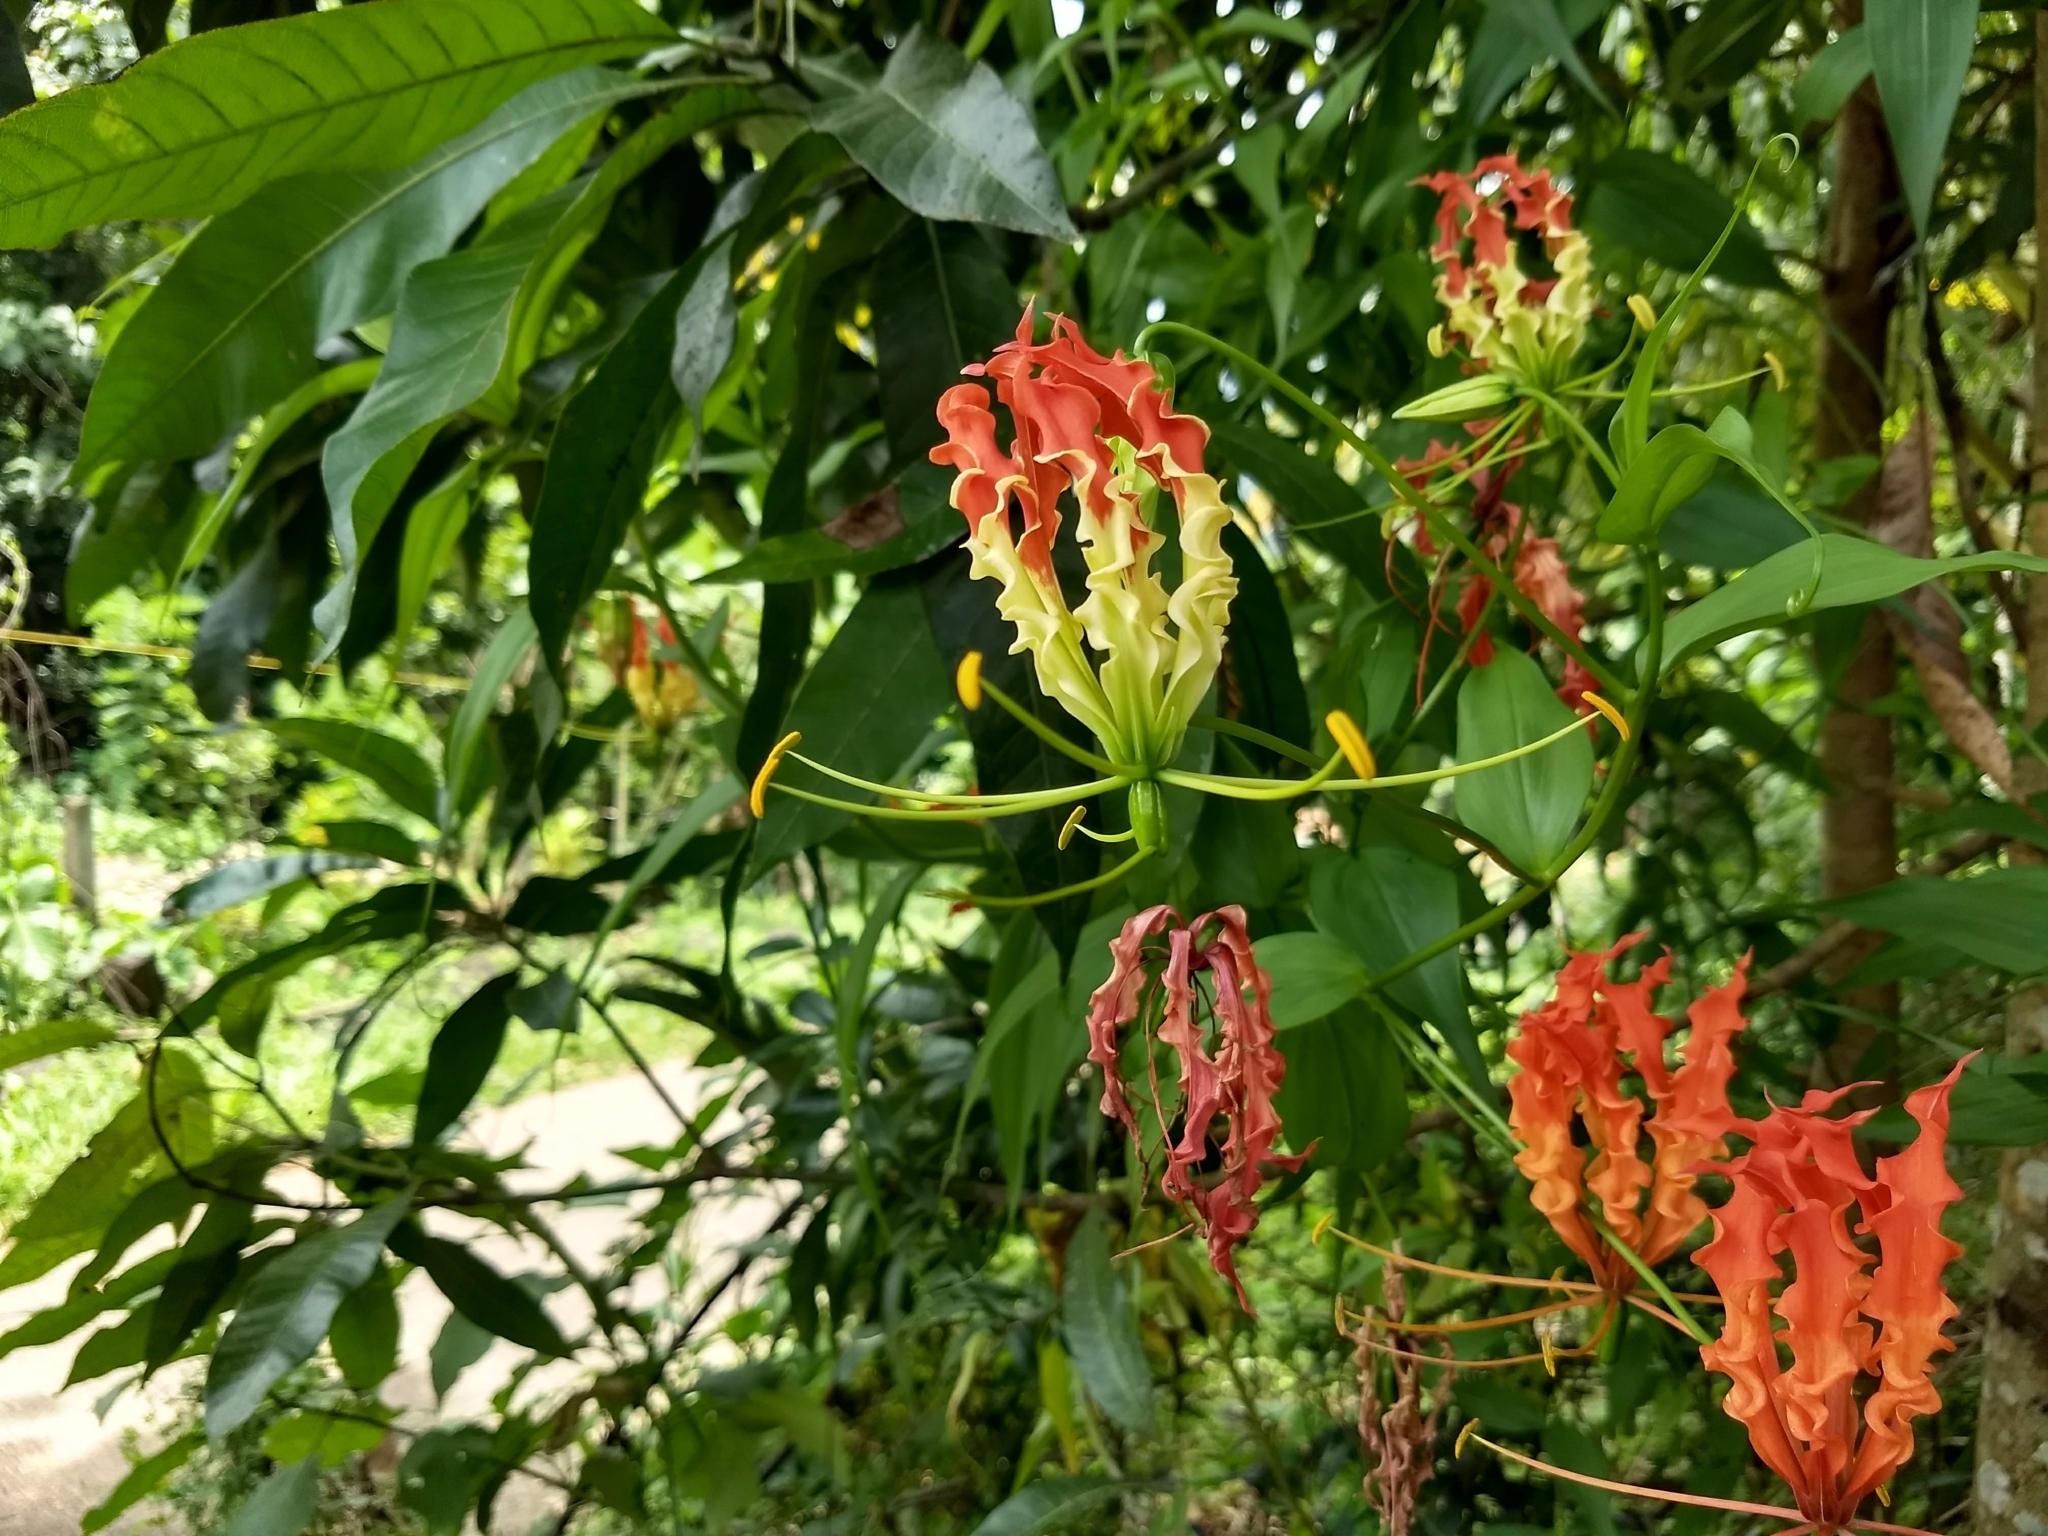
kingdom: Plantae
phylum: Tracheophyta
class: Liliopsida
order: Liliales
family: Colchicaceae
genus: Gloriosa
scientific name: Gloriosa superba
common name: Flame lily
